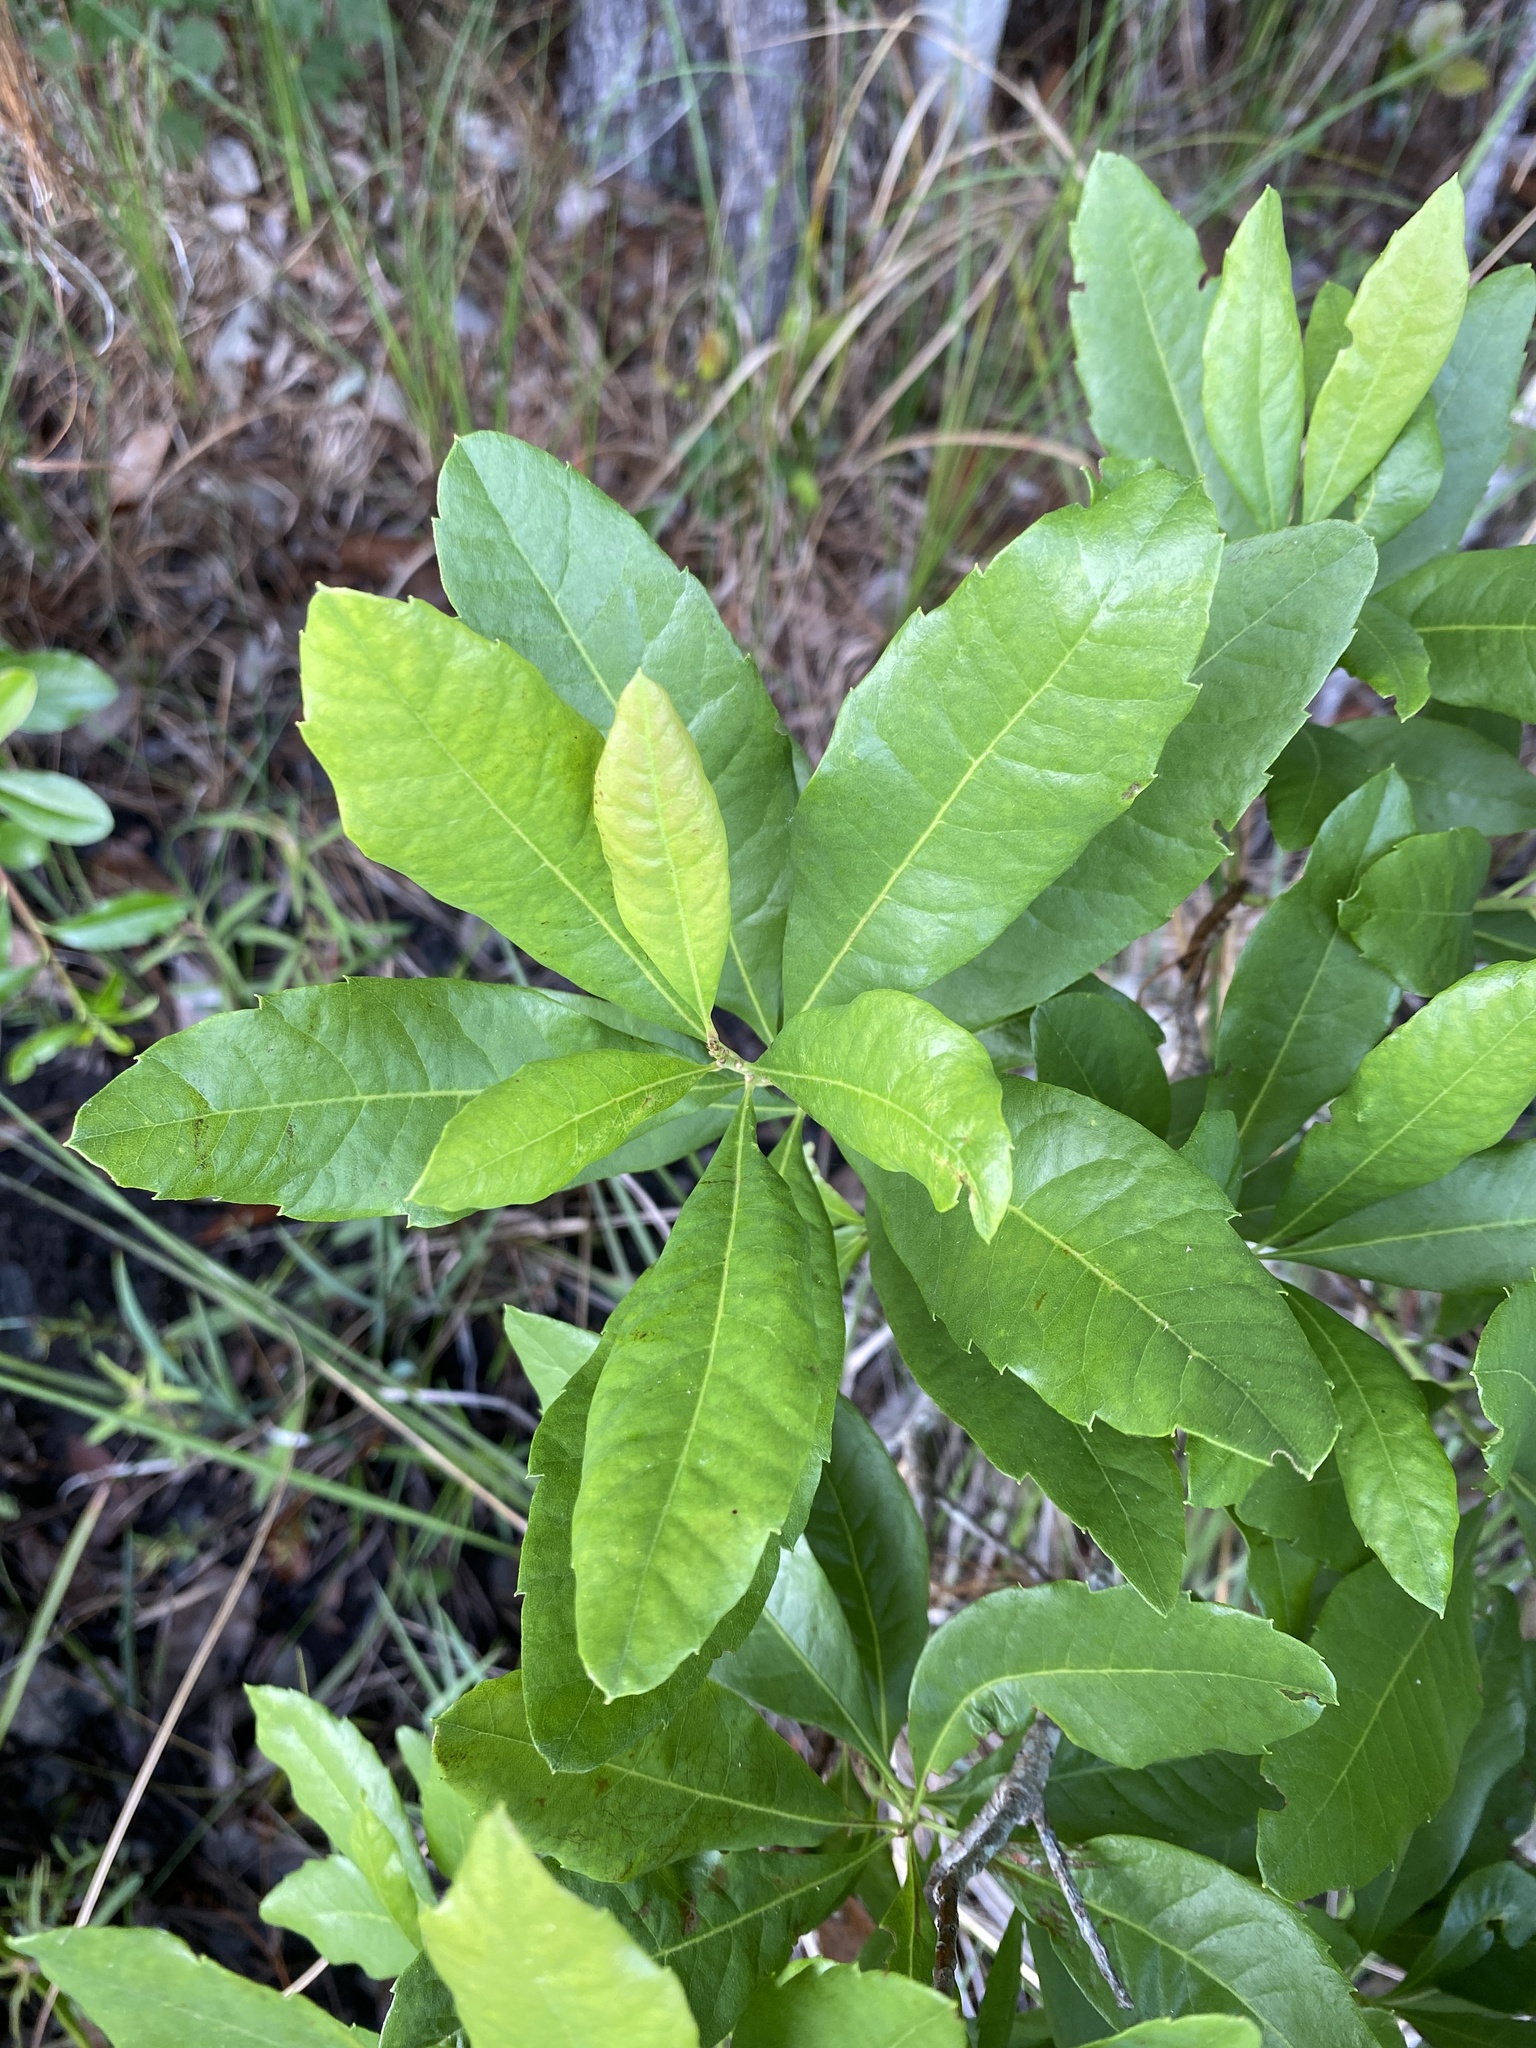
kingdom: Plantae
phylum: Tracheophyta
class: Magnoliopsida
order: Fagales
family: Myricaceae
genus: Morella
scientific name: Morella caroliniensis
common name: Evergreen bayberry
